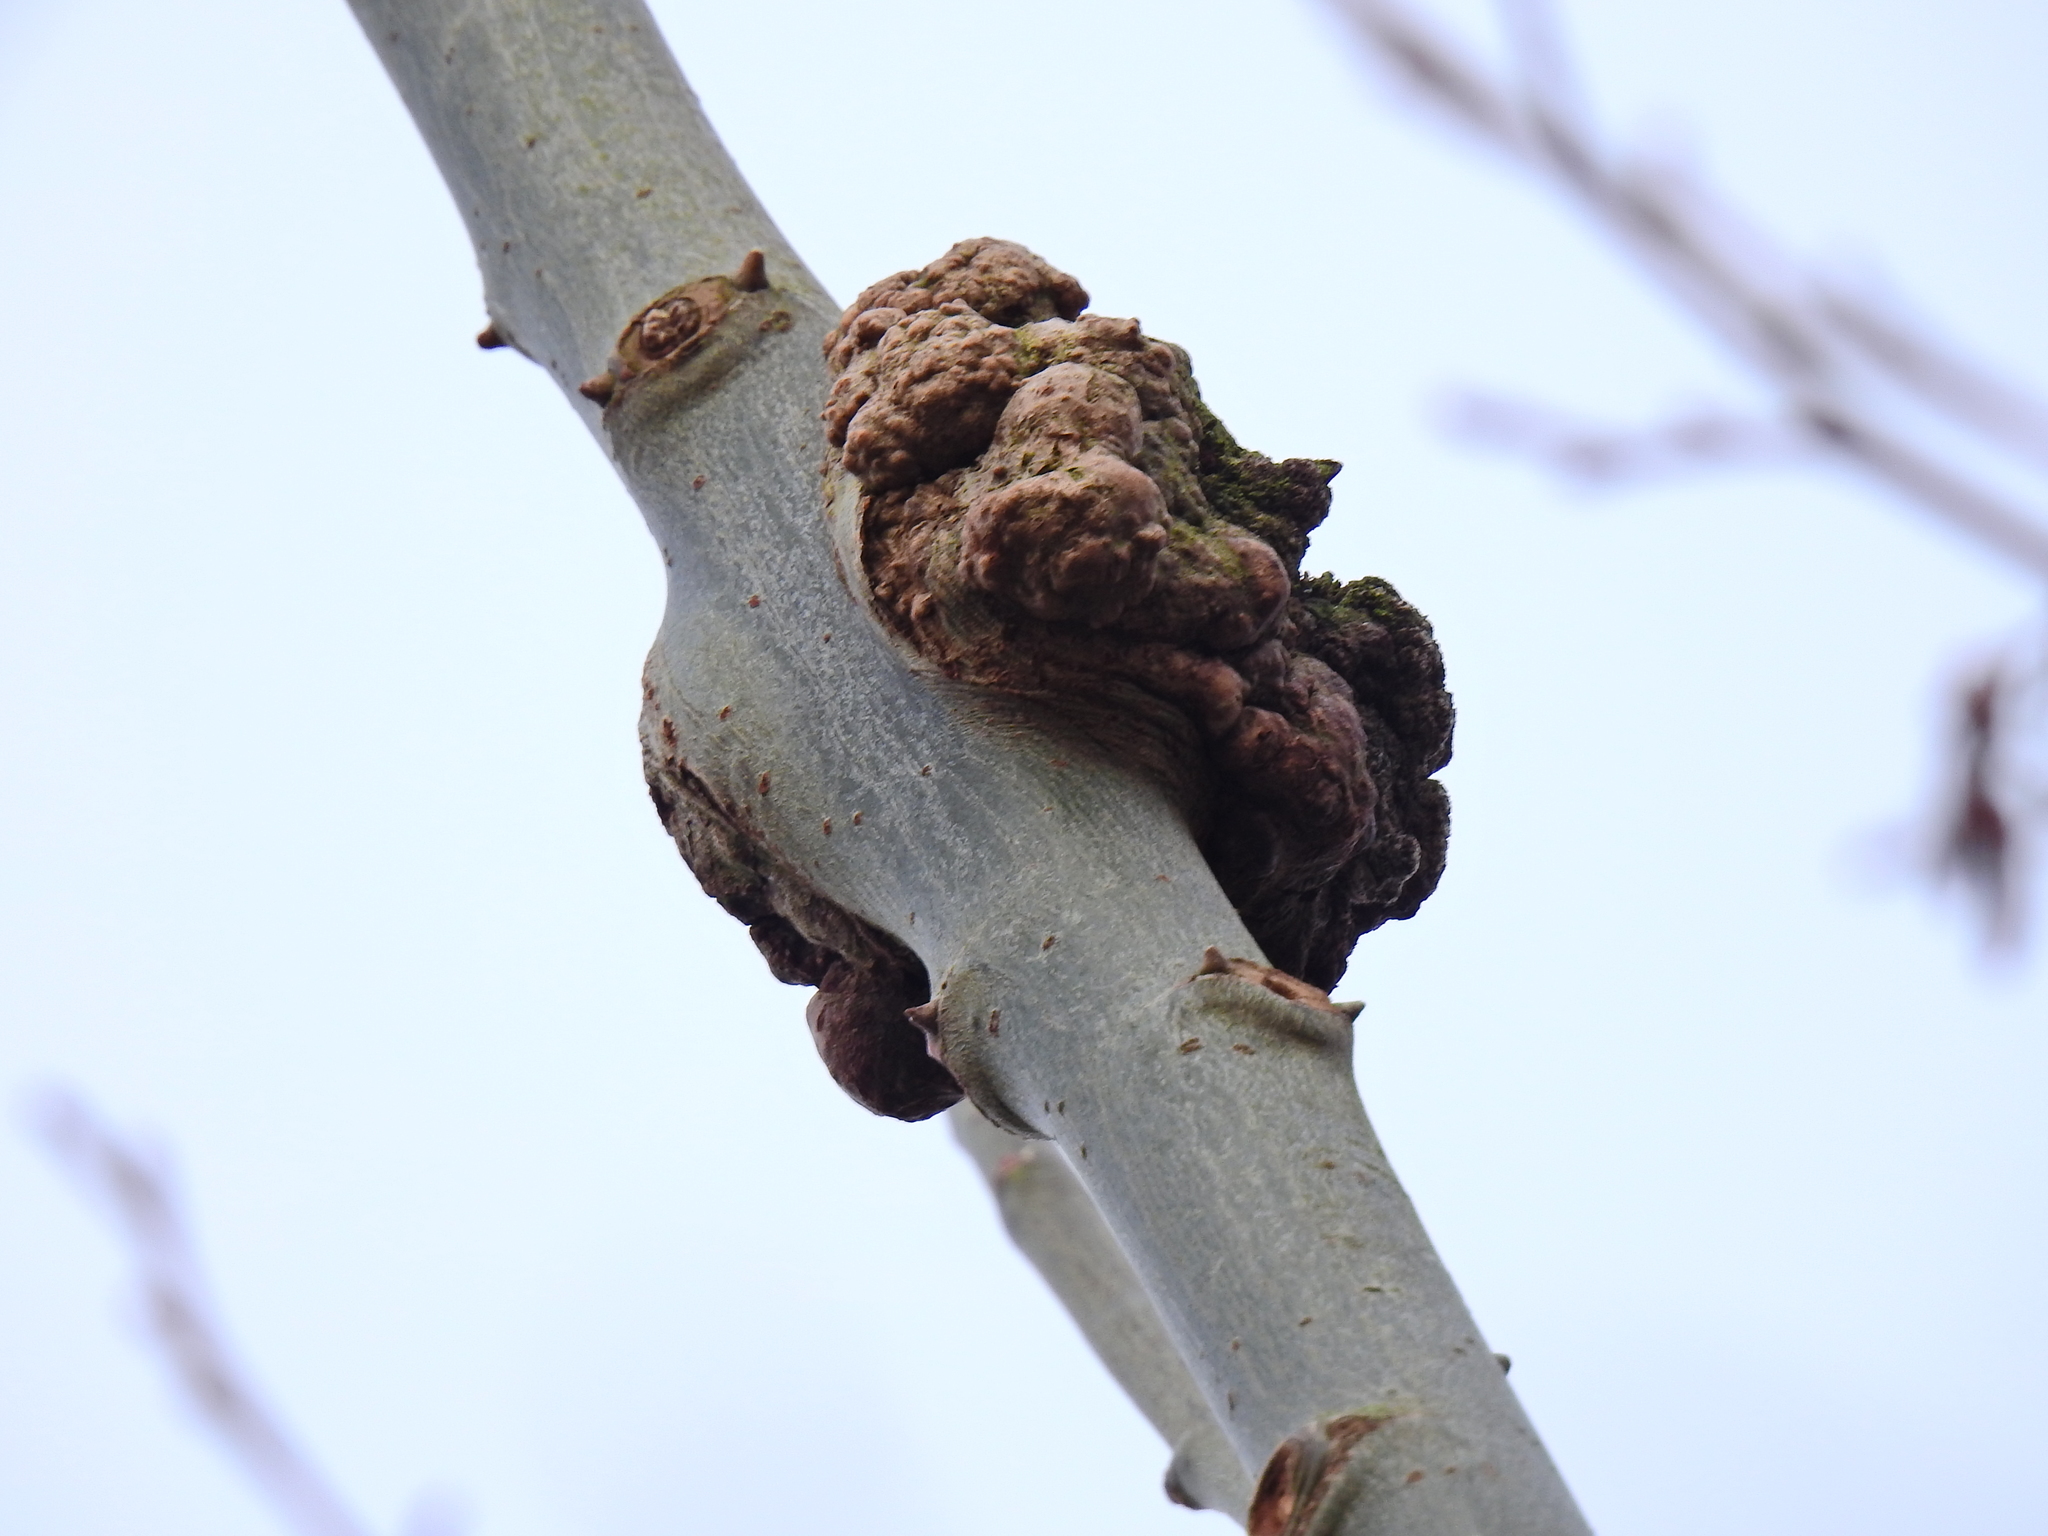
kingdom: Bacteria
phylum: Proteobacteria
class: Alphaproteobacteria
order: Rhizobiales
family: Rhizobiaceae
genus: Rhizobium
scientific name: Rhizobium Agrobacterium radiobacter
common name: Bacterial crown gall
